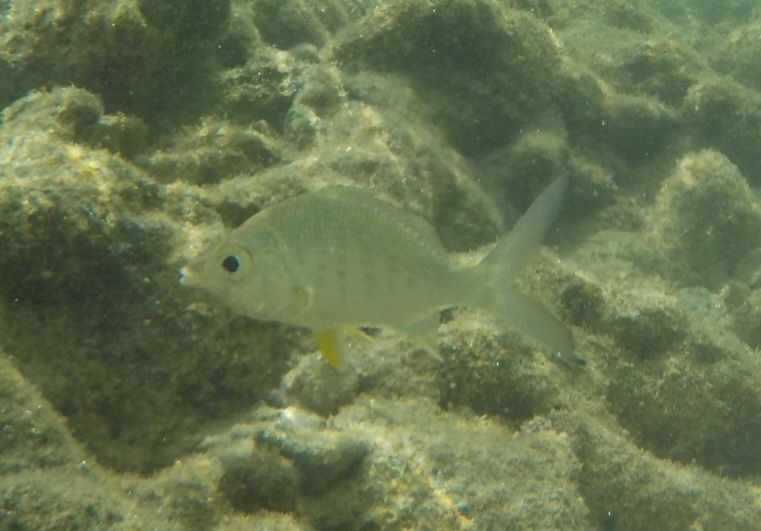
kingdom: Animalia
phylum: Chordata
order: Perciformes
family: Gerreidae
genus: Gerres
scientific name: Gerres cinereus
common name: Hedow
